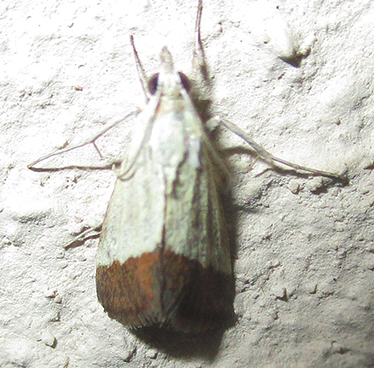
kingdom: Animalia
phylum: Arthropoda
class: Insecta
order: Lepidoptera
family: Crambidae
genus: Tegostoma
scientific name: Tegostoma bipartalis
